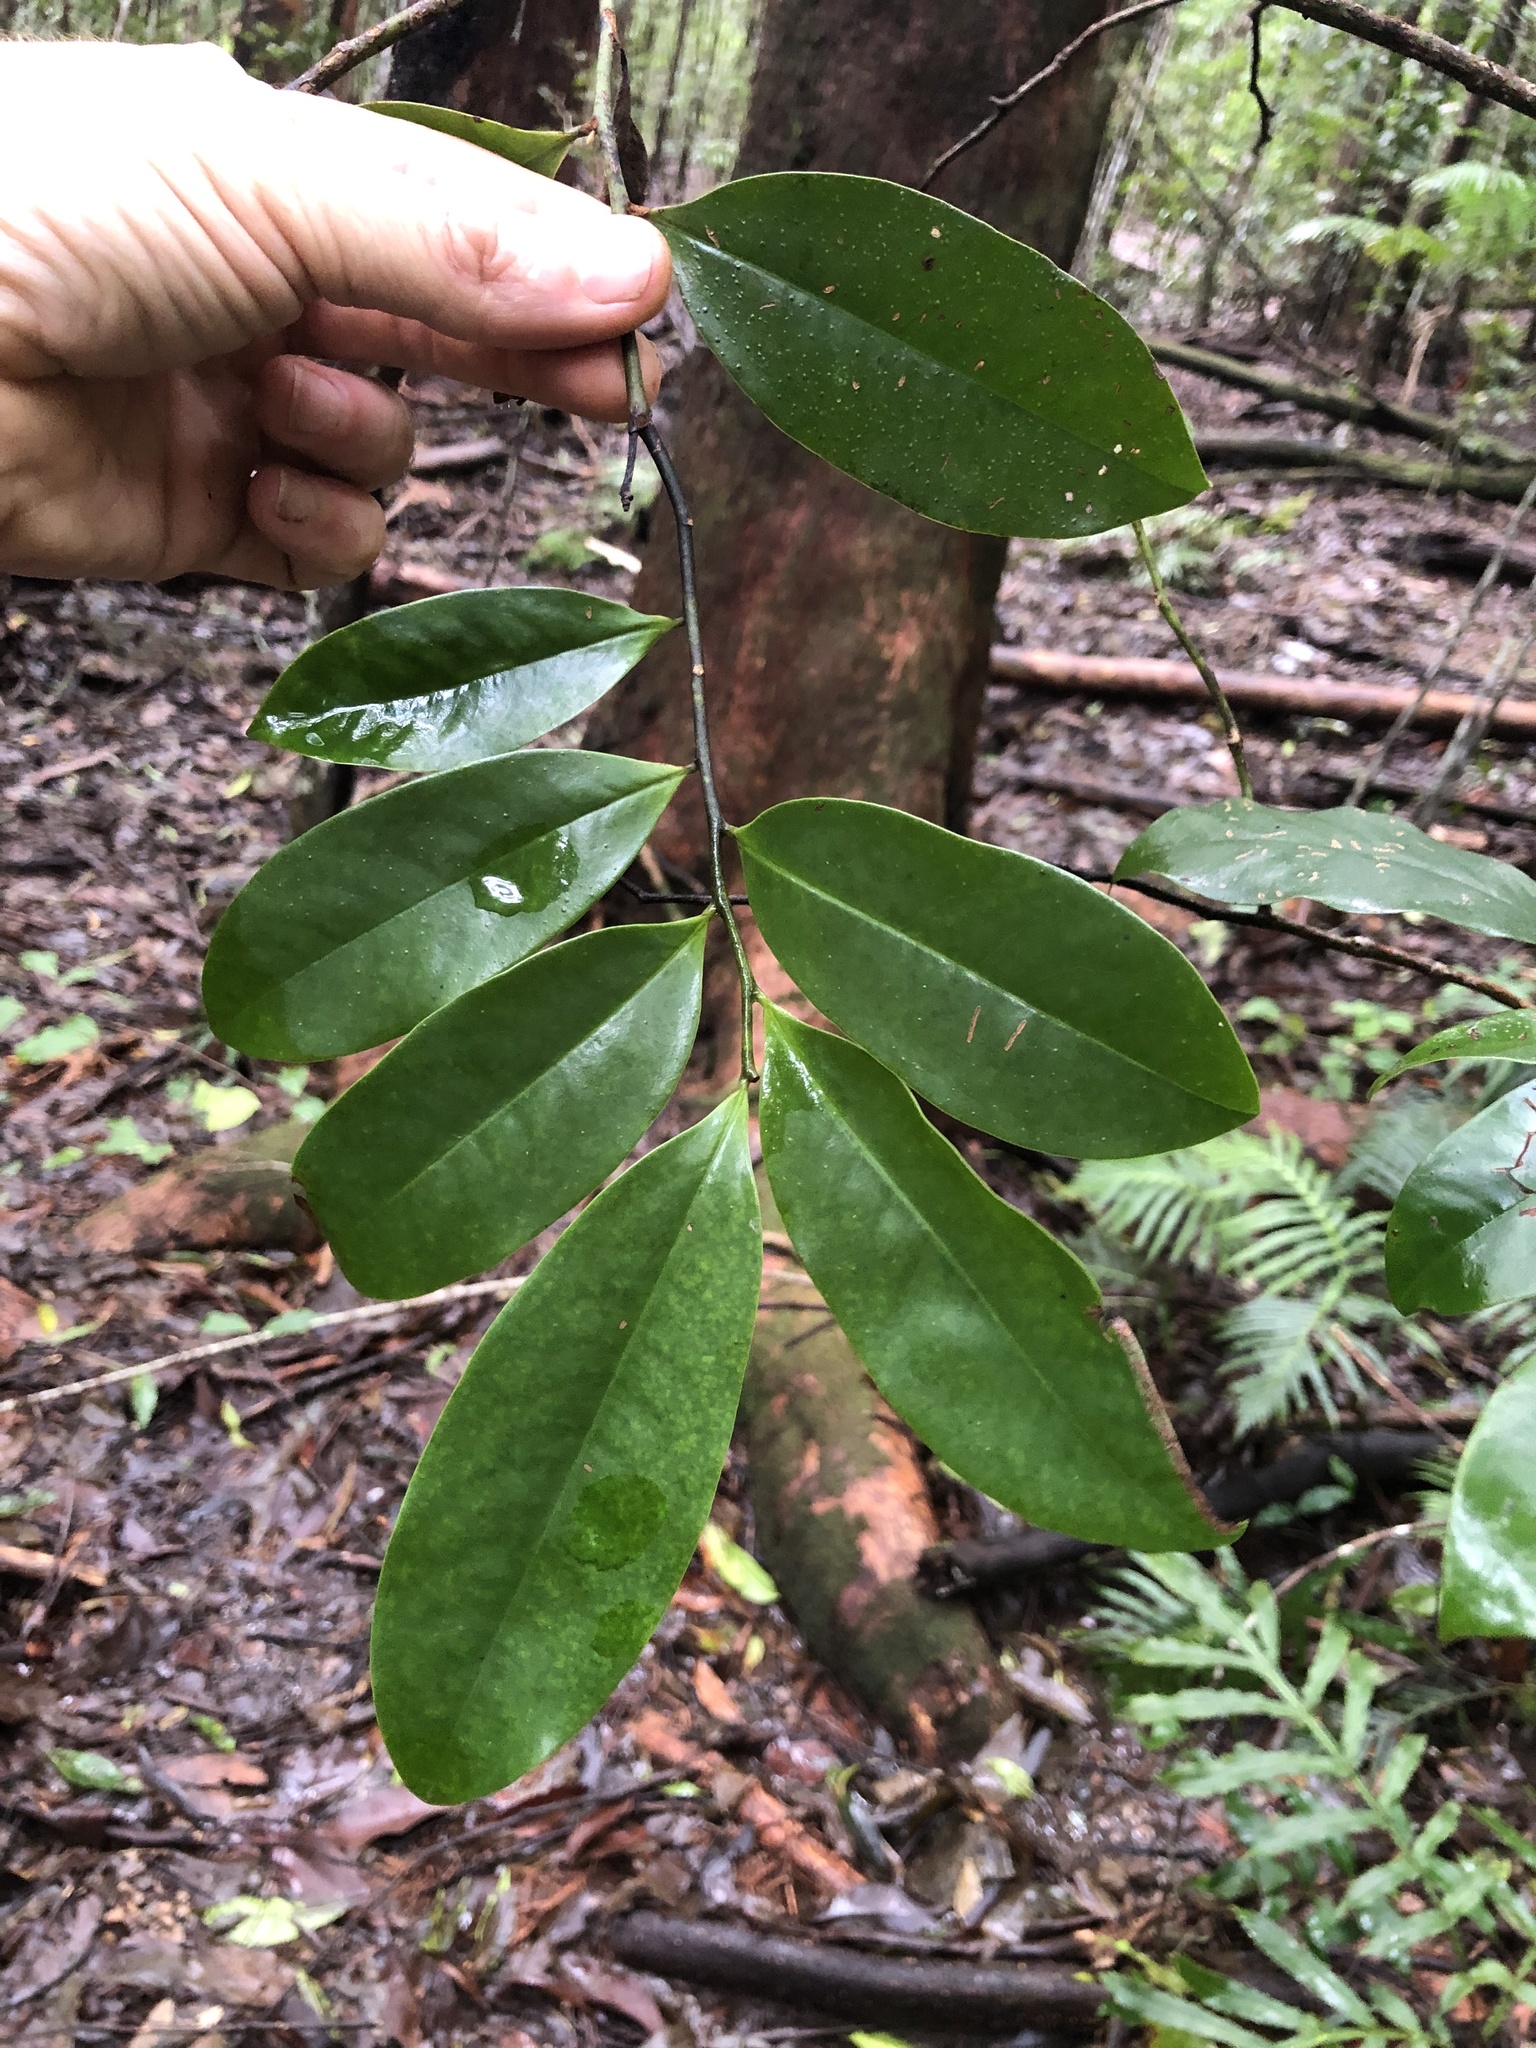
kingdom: Plantae
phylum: Tracheophyta
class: Magnoliopsida
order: Magnoliales
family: Eupomatiaceae
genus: Eupomatia
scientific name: Eupomatia laurina
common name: Bolwarra
